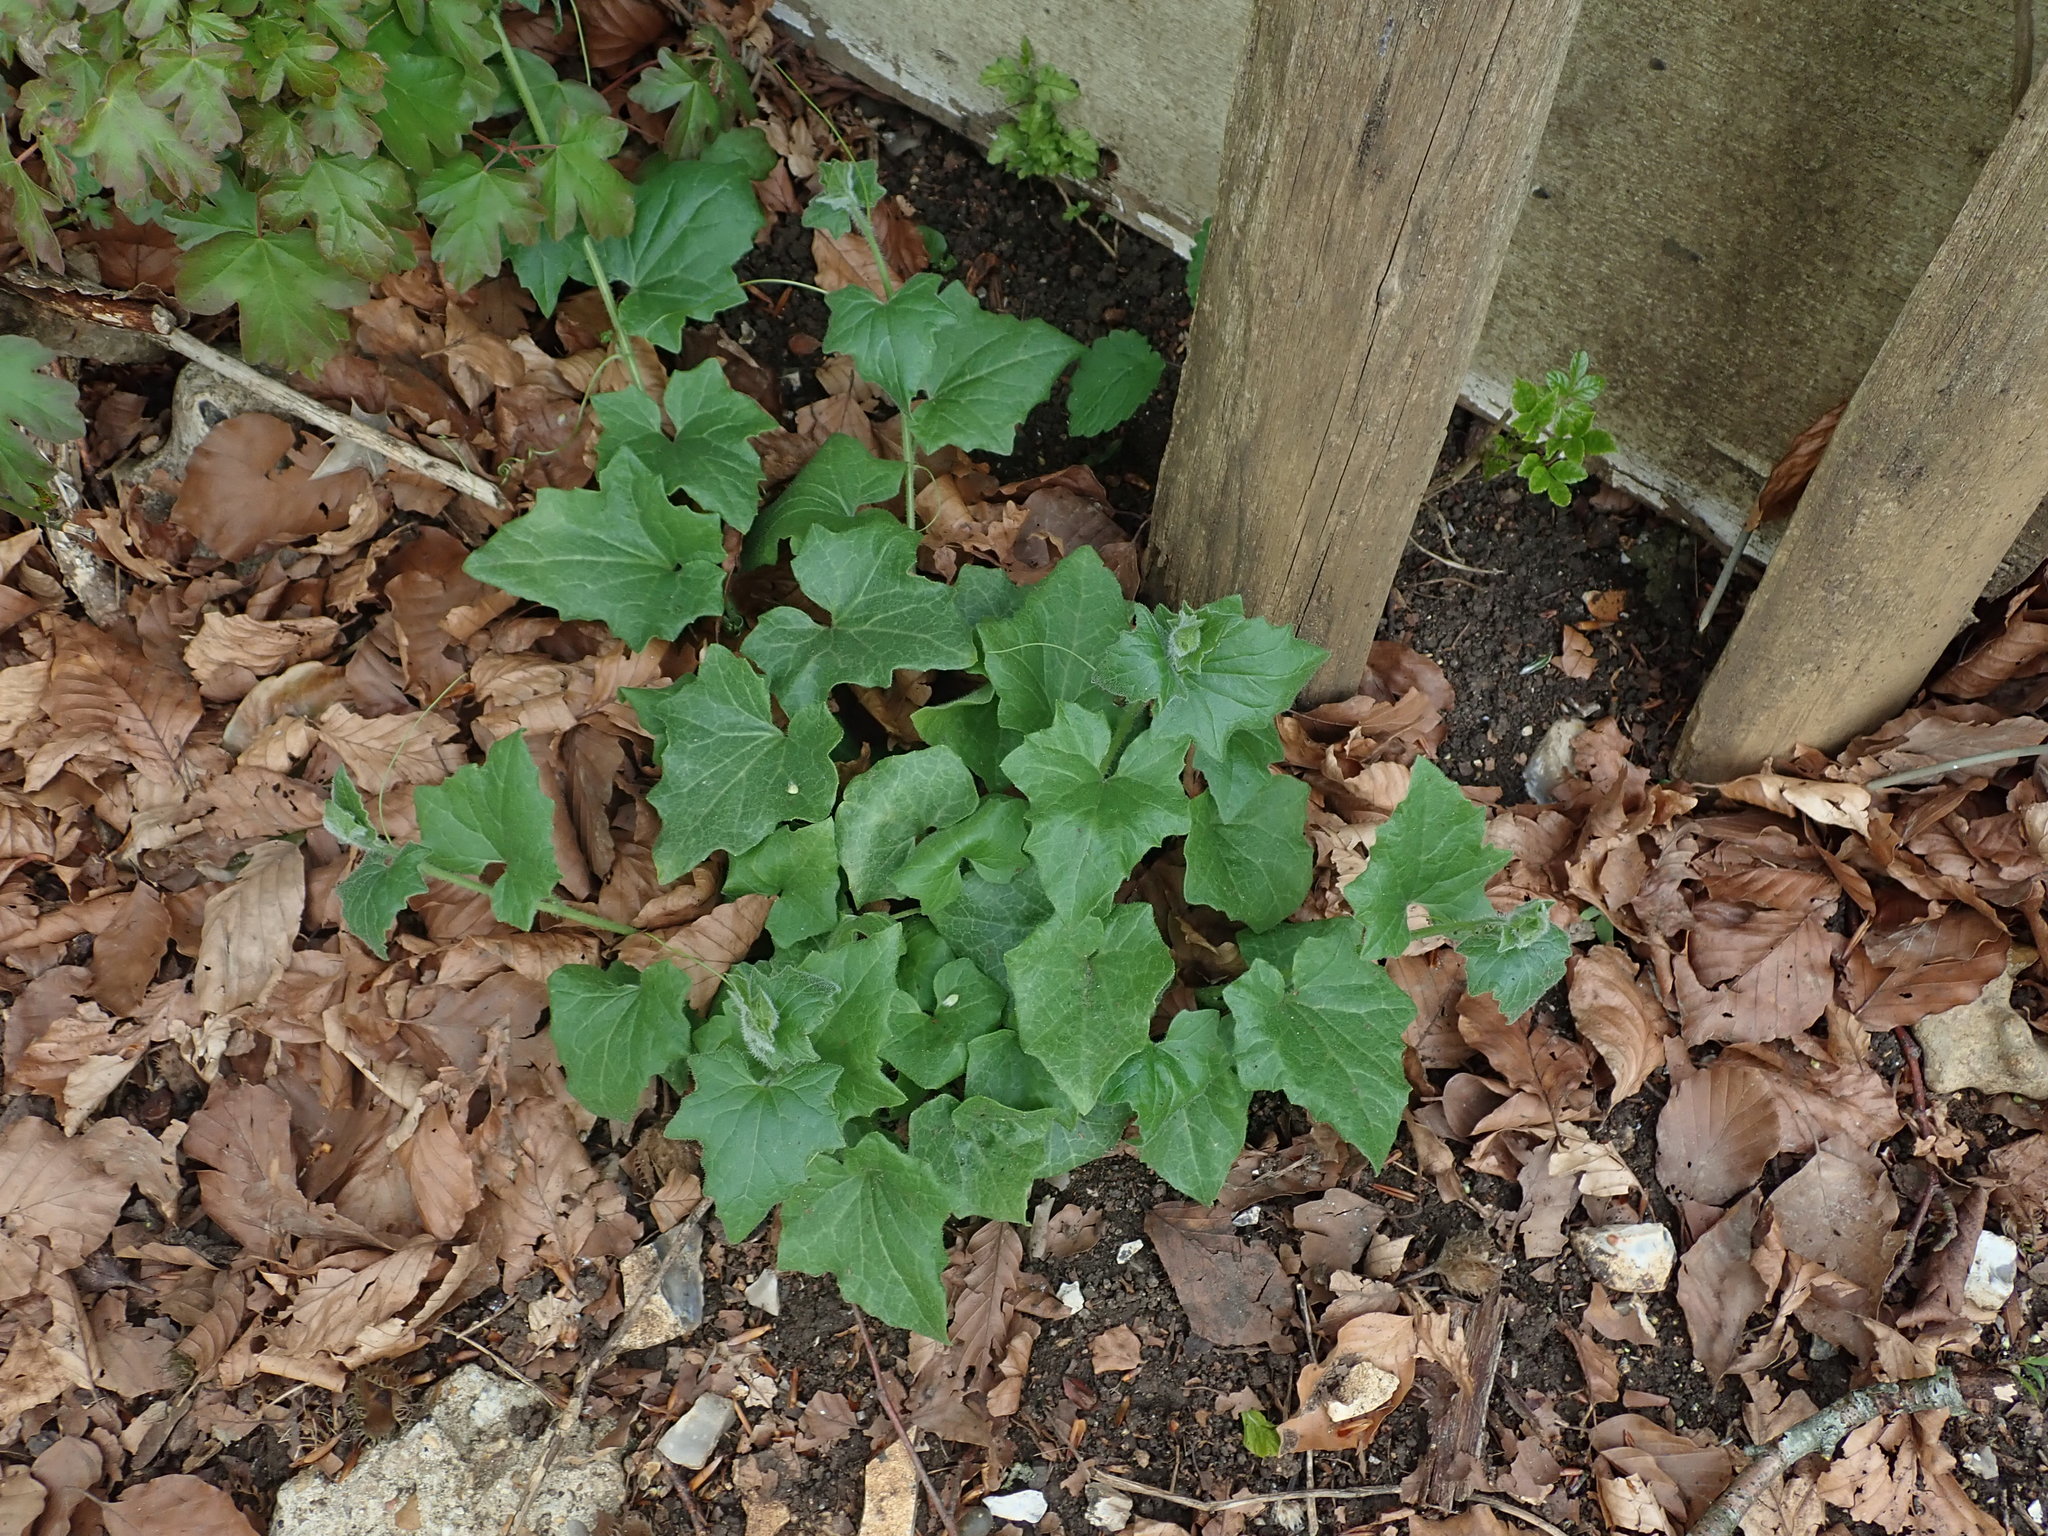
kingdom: Plantae
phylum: Tracheophyta
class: Magnoliopsida
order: Cucurbitales
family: Cucurbitaceae
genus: Bryonia
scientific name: Bryonia cretica
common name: Cretan bryony
